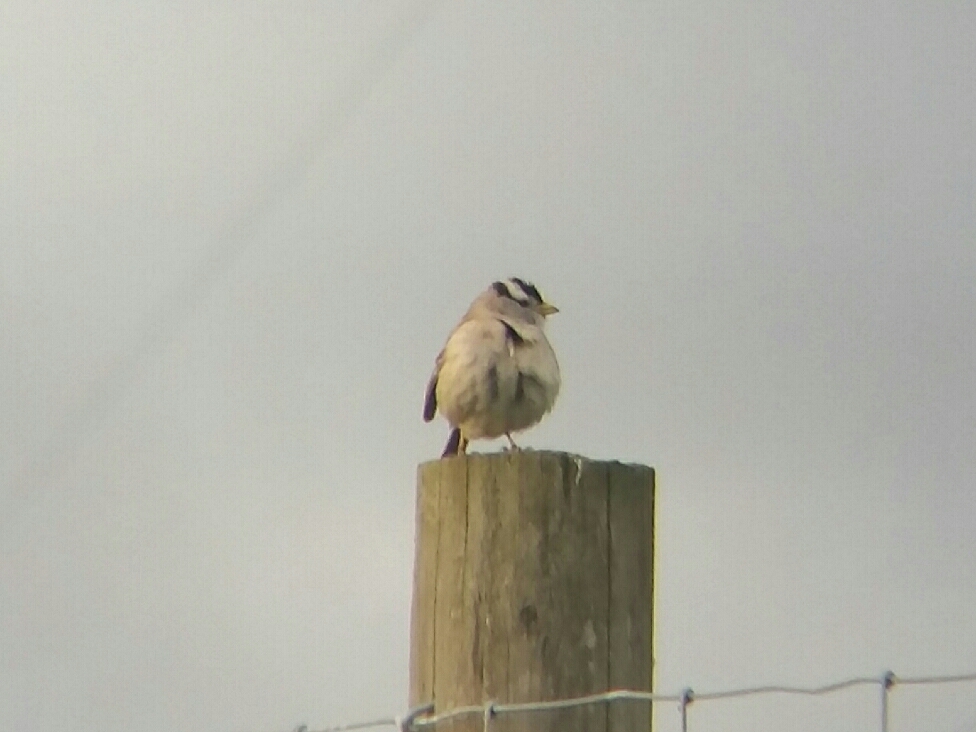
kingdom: Animalia
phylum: Chordata
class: Aves
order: Passeriformes
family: Passerellidae
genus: Zonotrichia
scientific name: Zonotrichia leucophrys
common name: White-crowned sparrow
